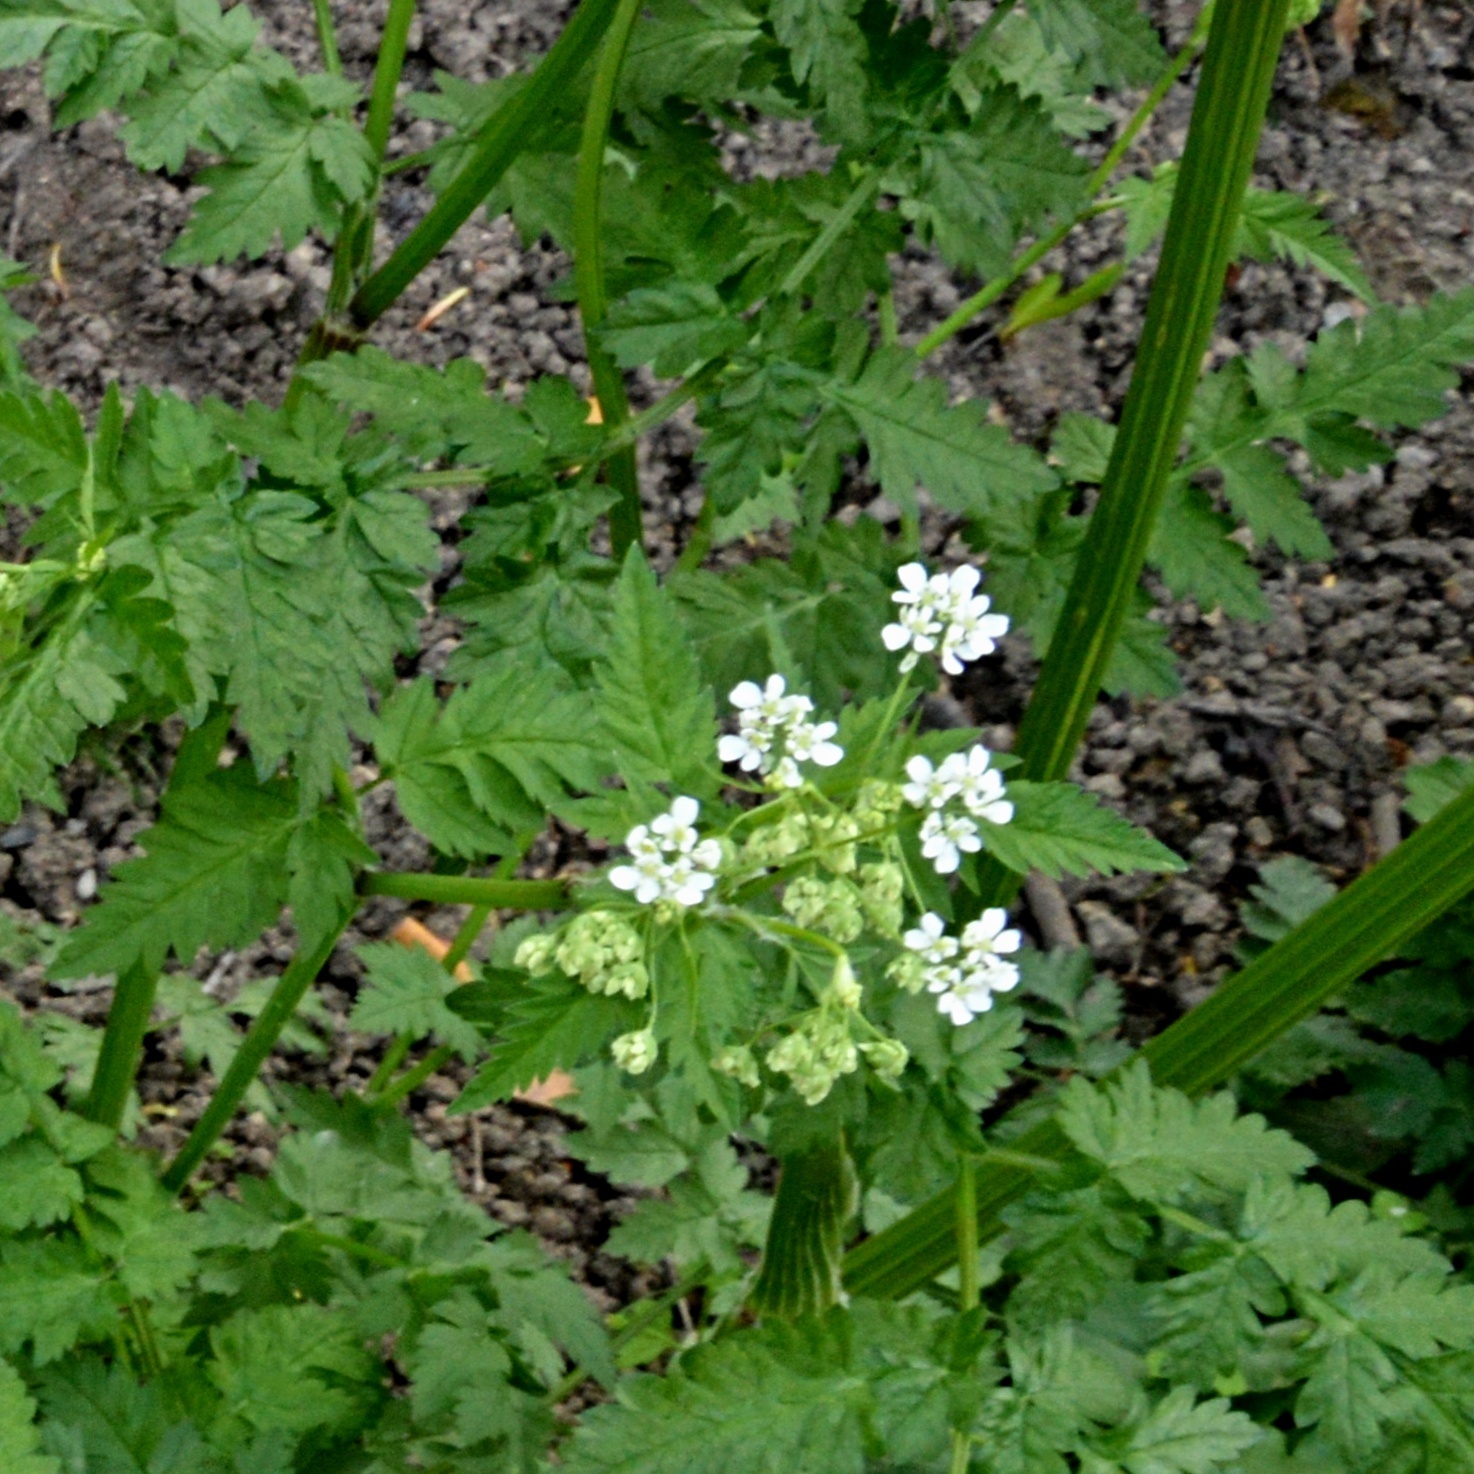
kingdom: Plantae
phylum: Tracheophyta
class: Magnoliopsida
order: Apiales
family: Apiaceae
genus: Anthriscus
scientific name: Anthriscus sylvestris
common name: Cow parsley
